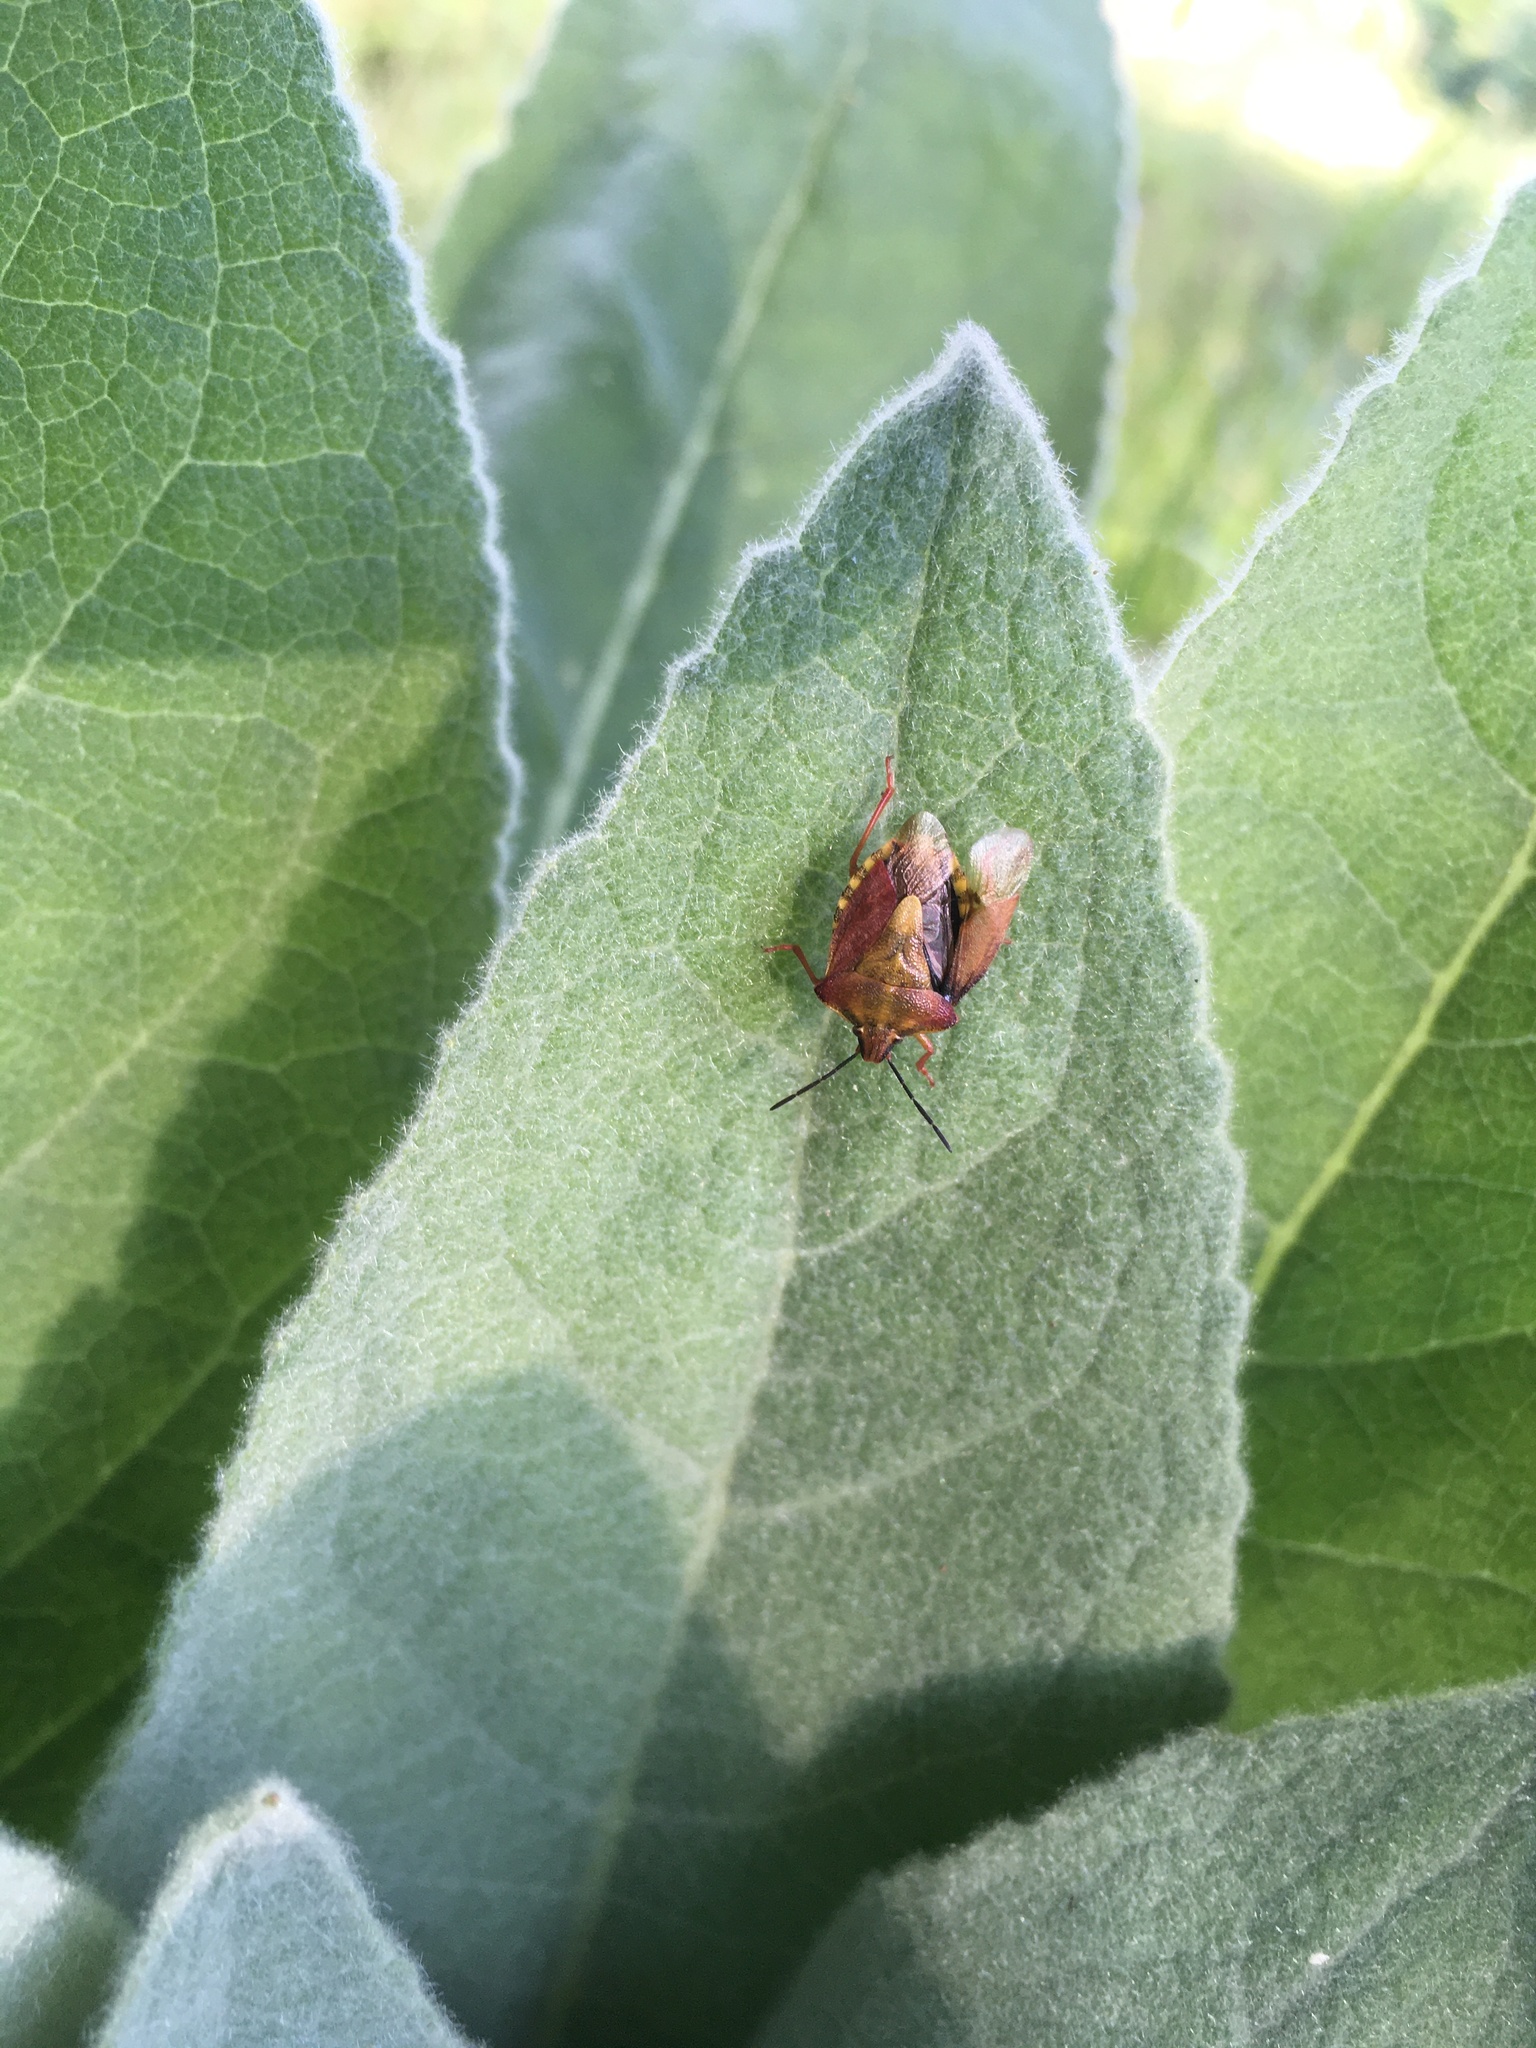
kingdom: Animalia
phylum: Arthropoda
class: Insecta
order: Hemiptera
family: Pentatomidae
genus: Carpocoris
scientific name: Carpocoris purpureipennis
